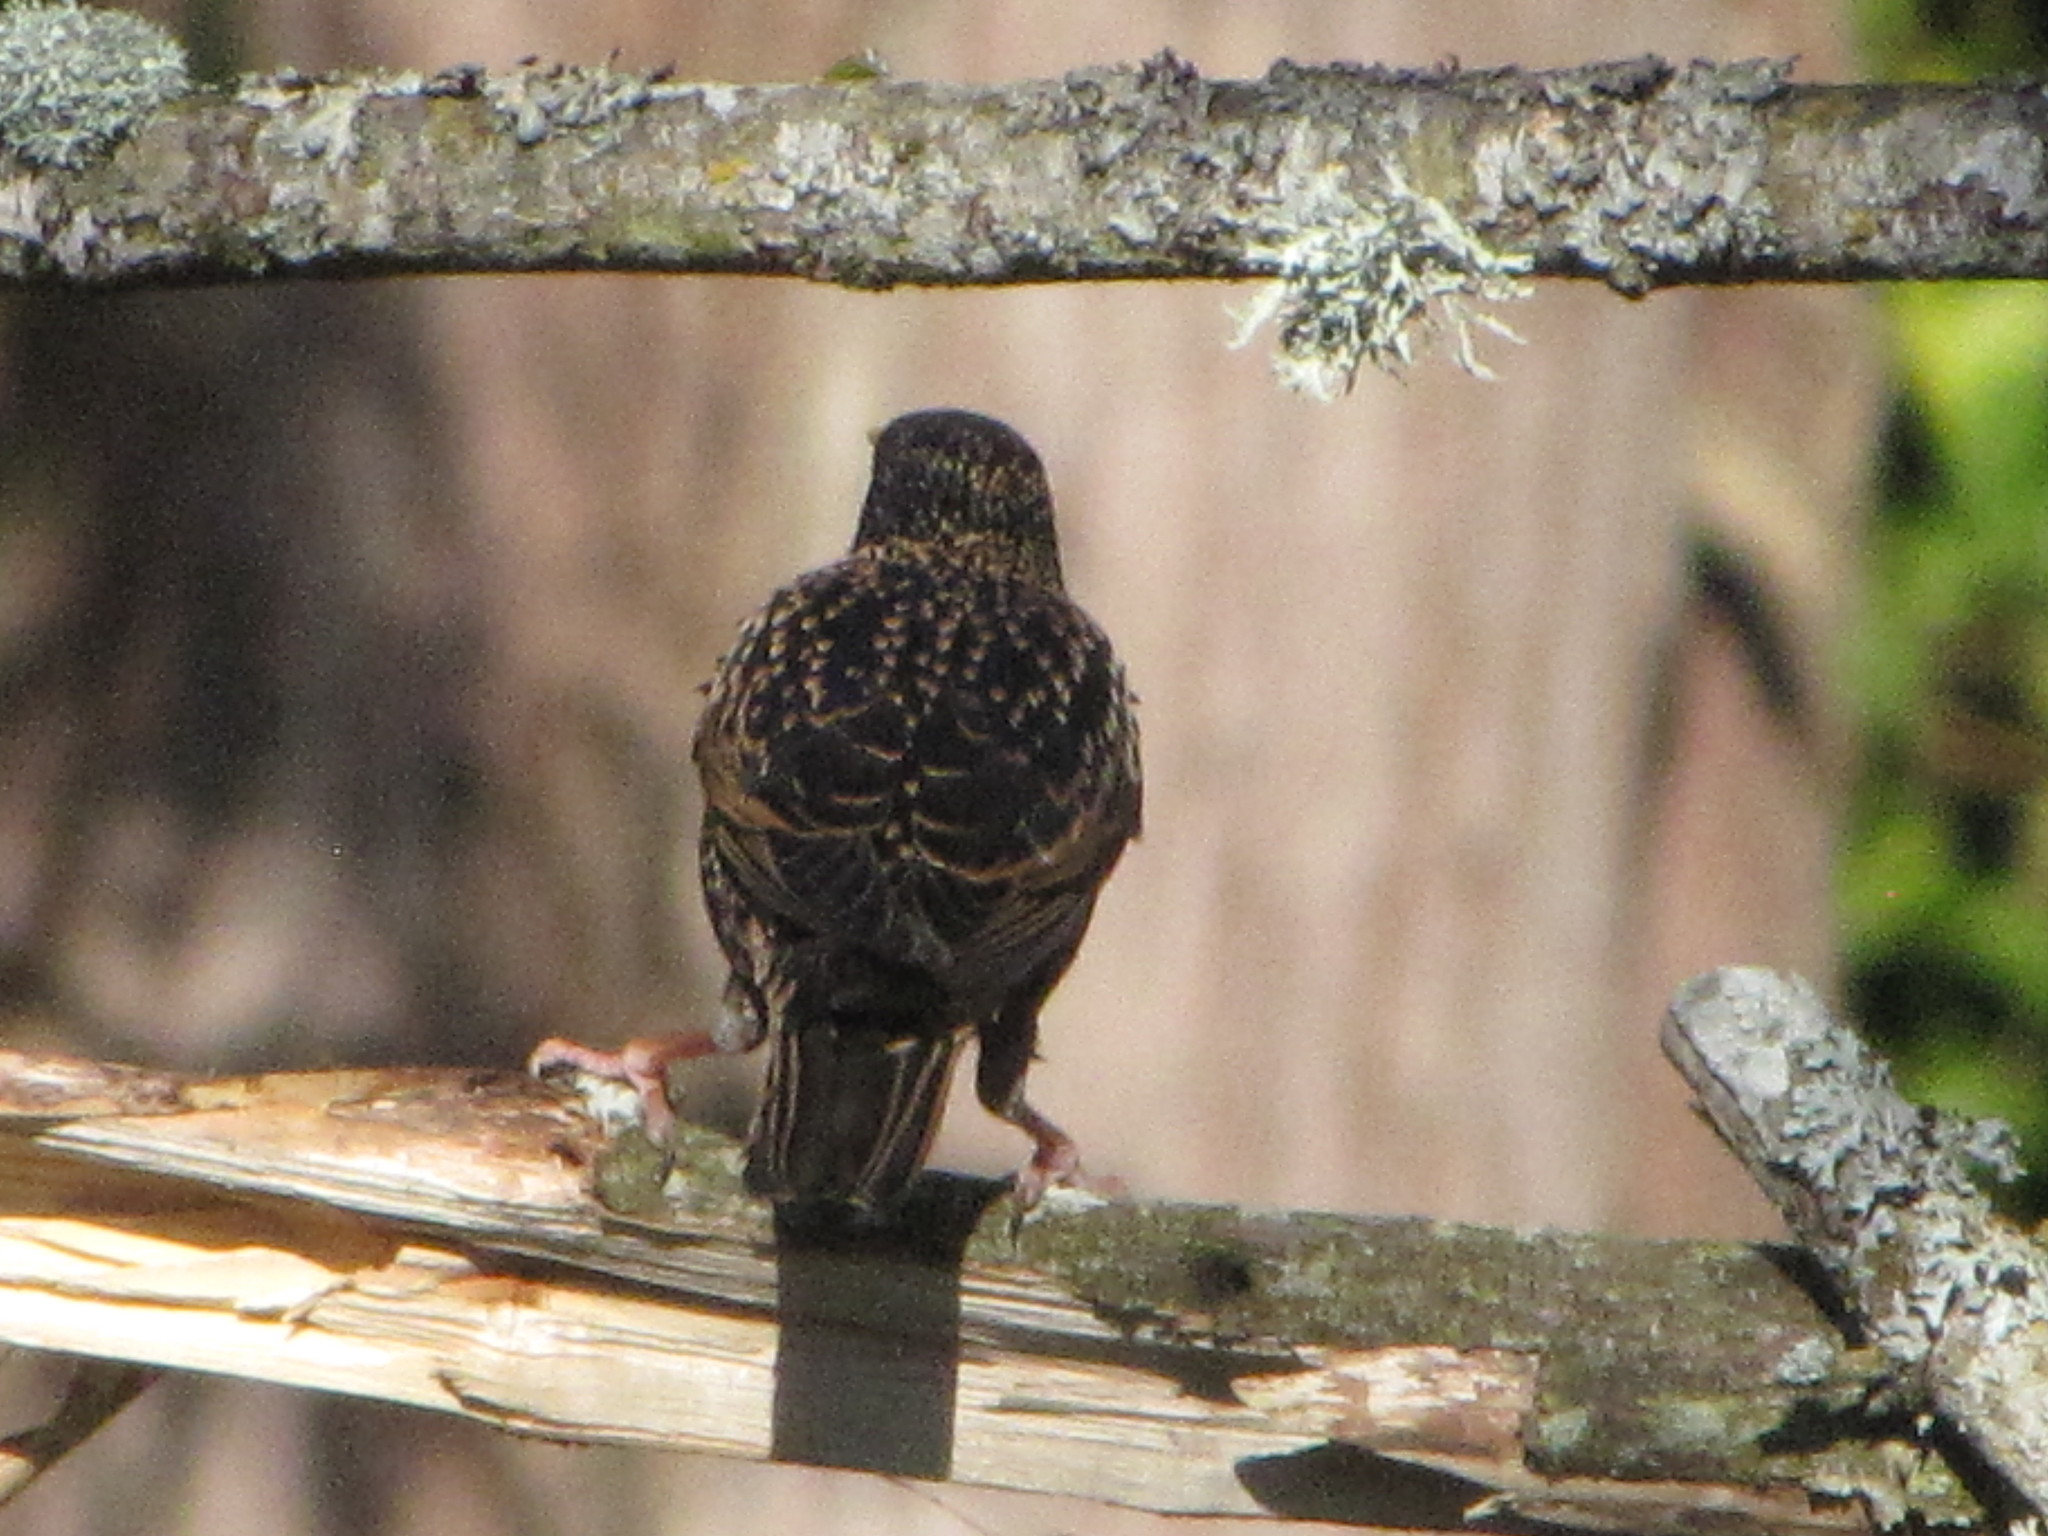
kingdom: Animalia
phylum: Chordata
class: Aves
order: Passeriformes
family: Sturnidae
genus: Sturnus
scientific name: Sturnus vulgaris
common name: Common starling
